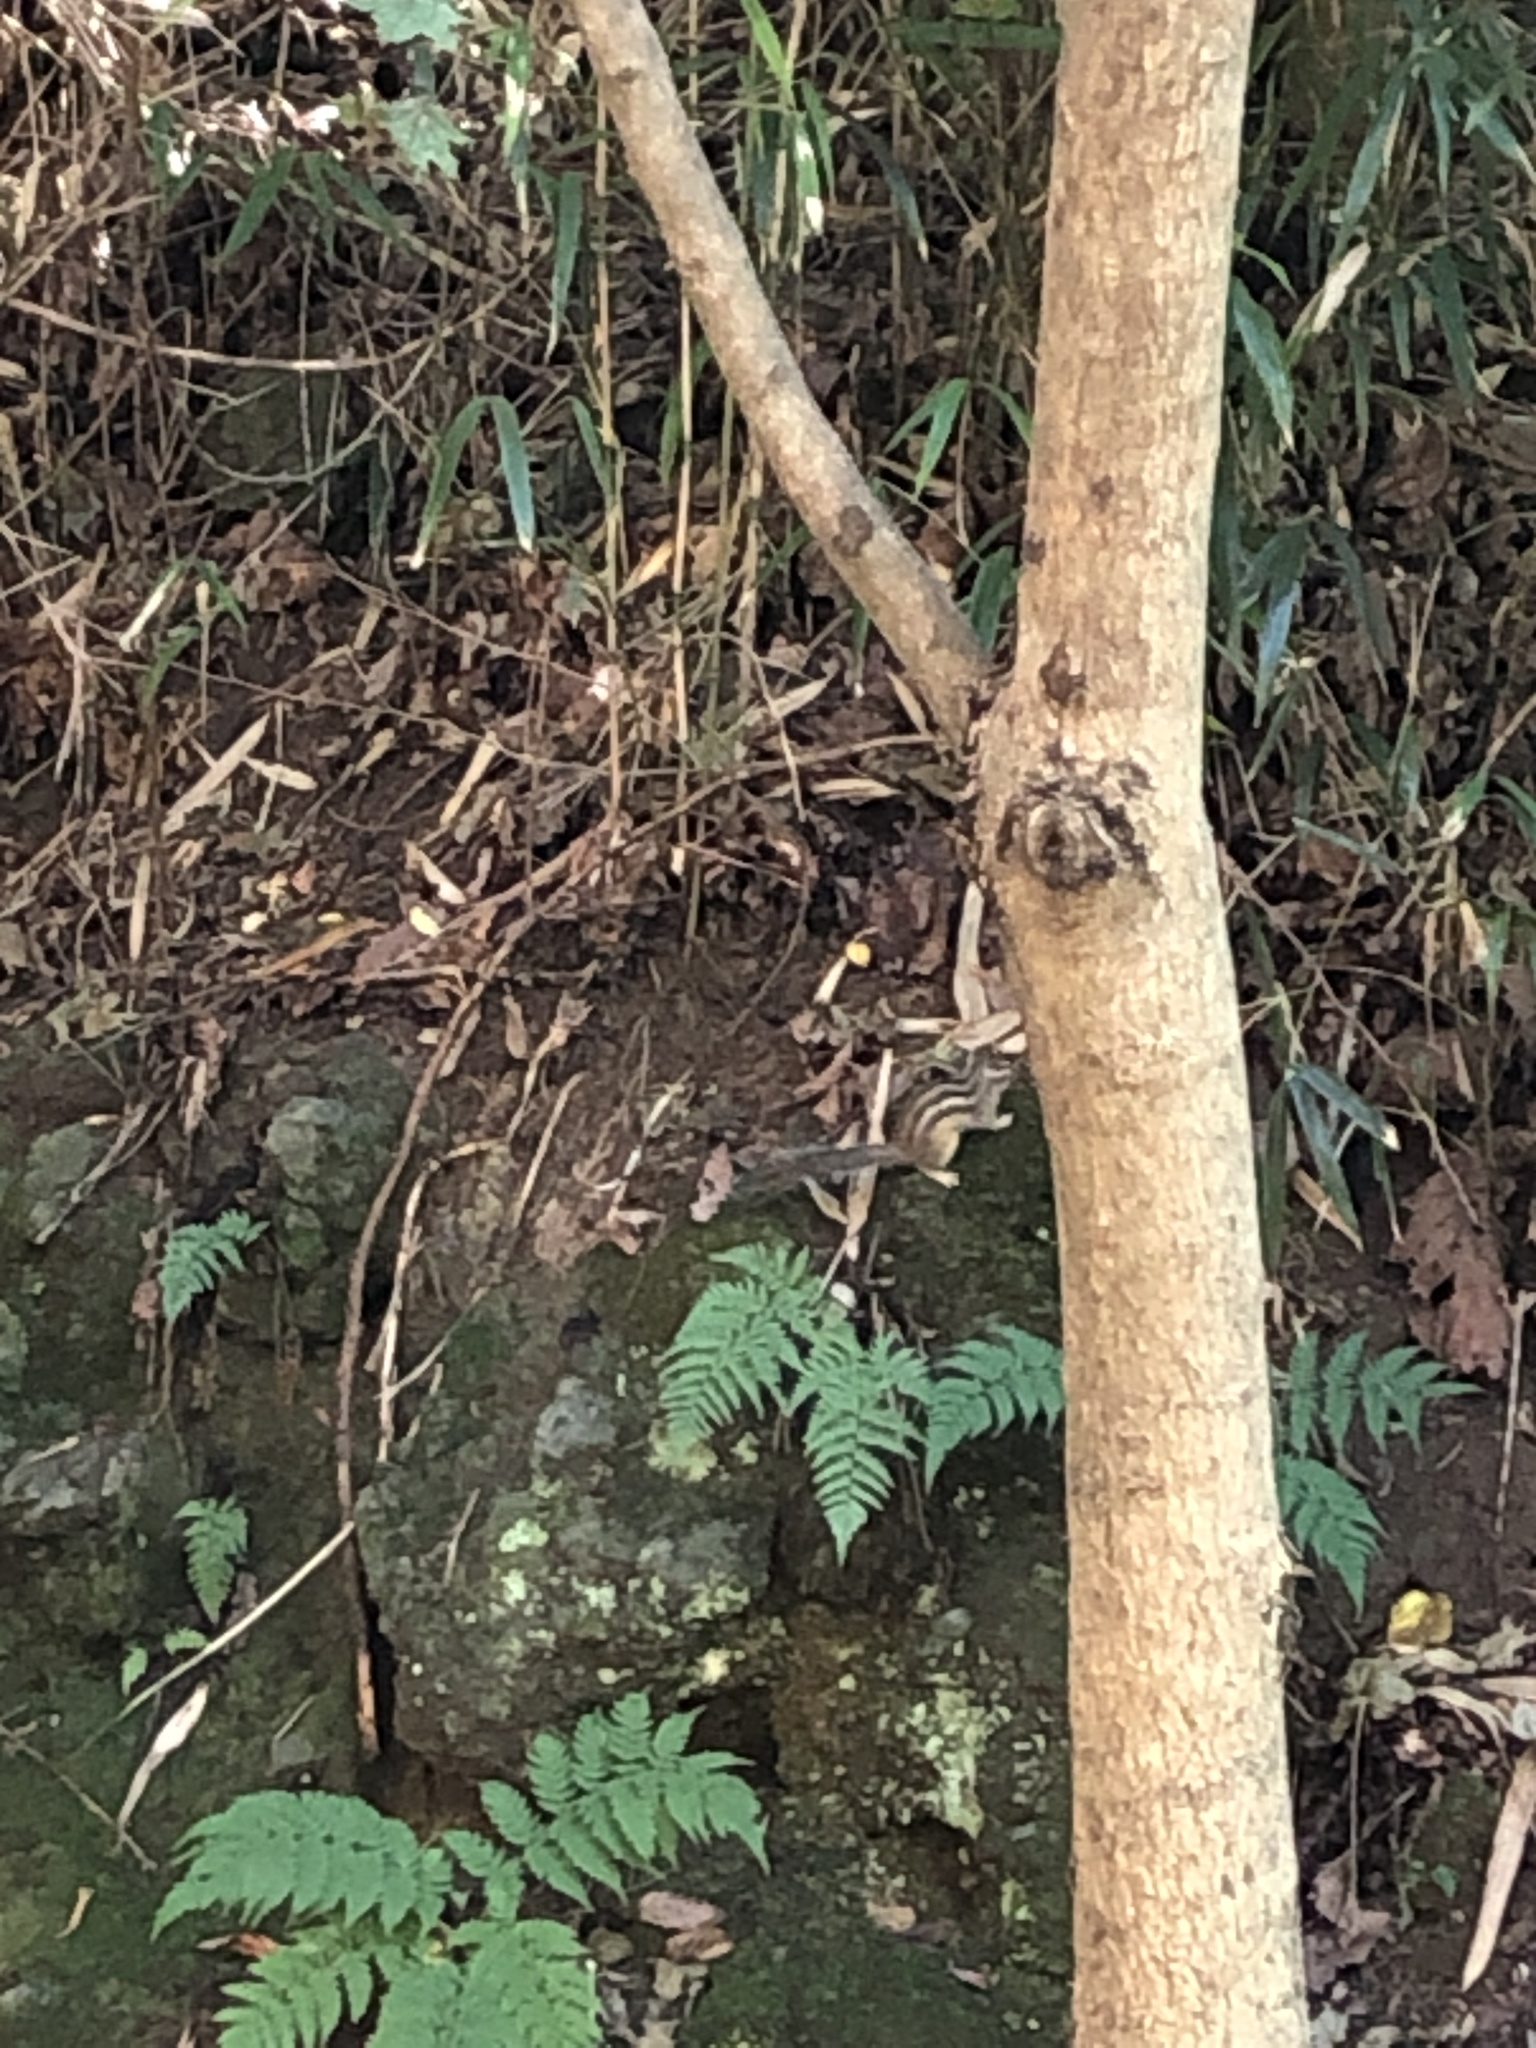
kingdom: Animalia
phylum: Chordata
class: Mammalia
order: Rodentia
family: Sciuridae
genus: Tamias
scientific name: Tamias sibiricus
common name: Siberian chipmunk
